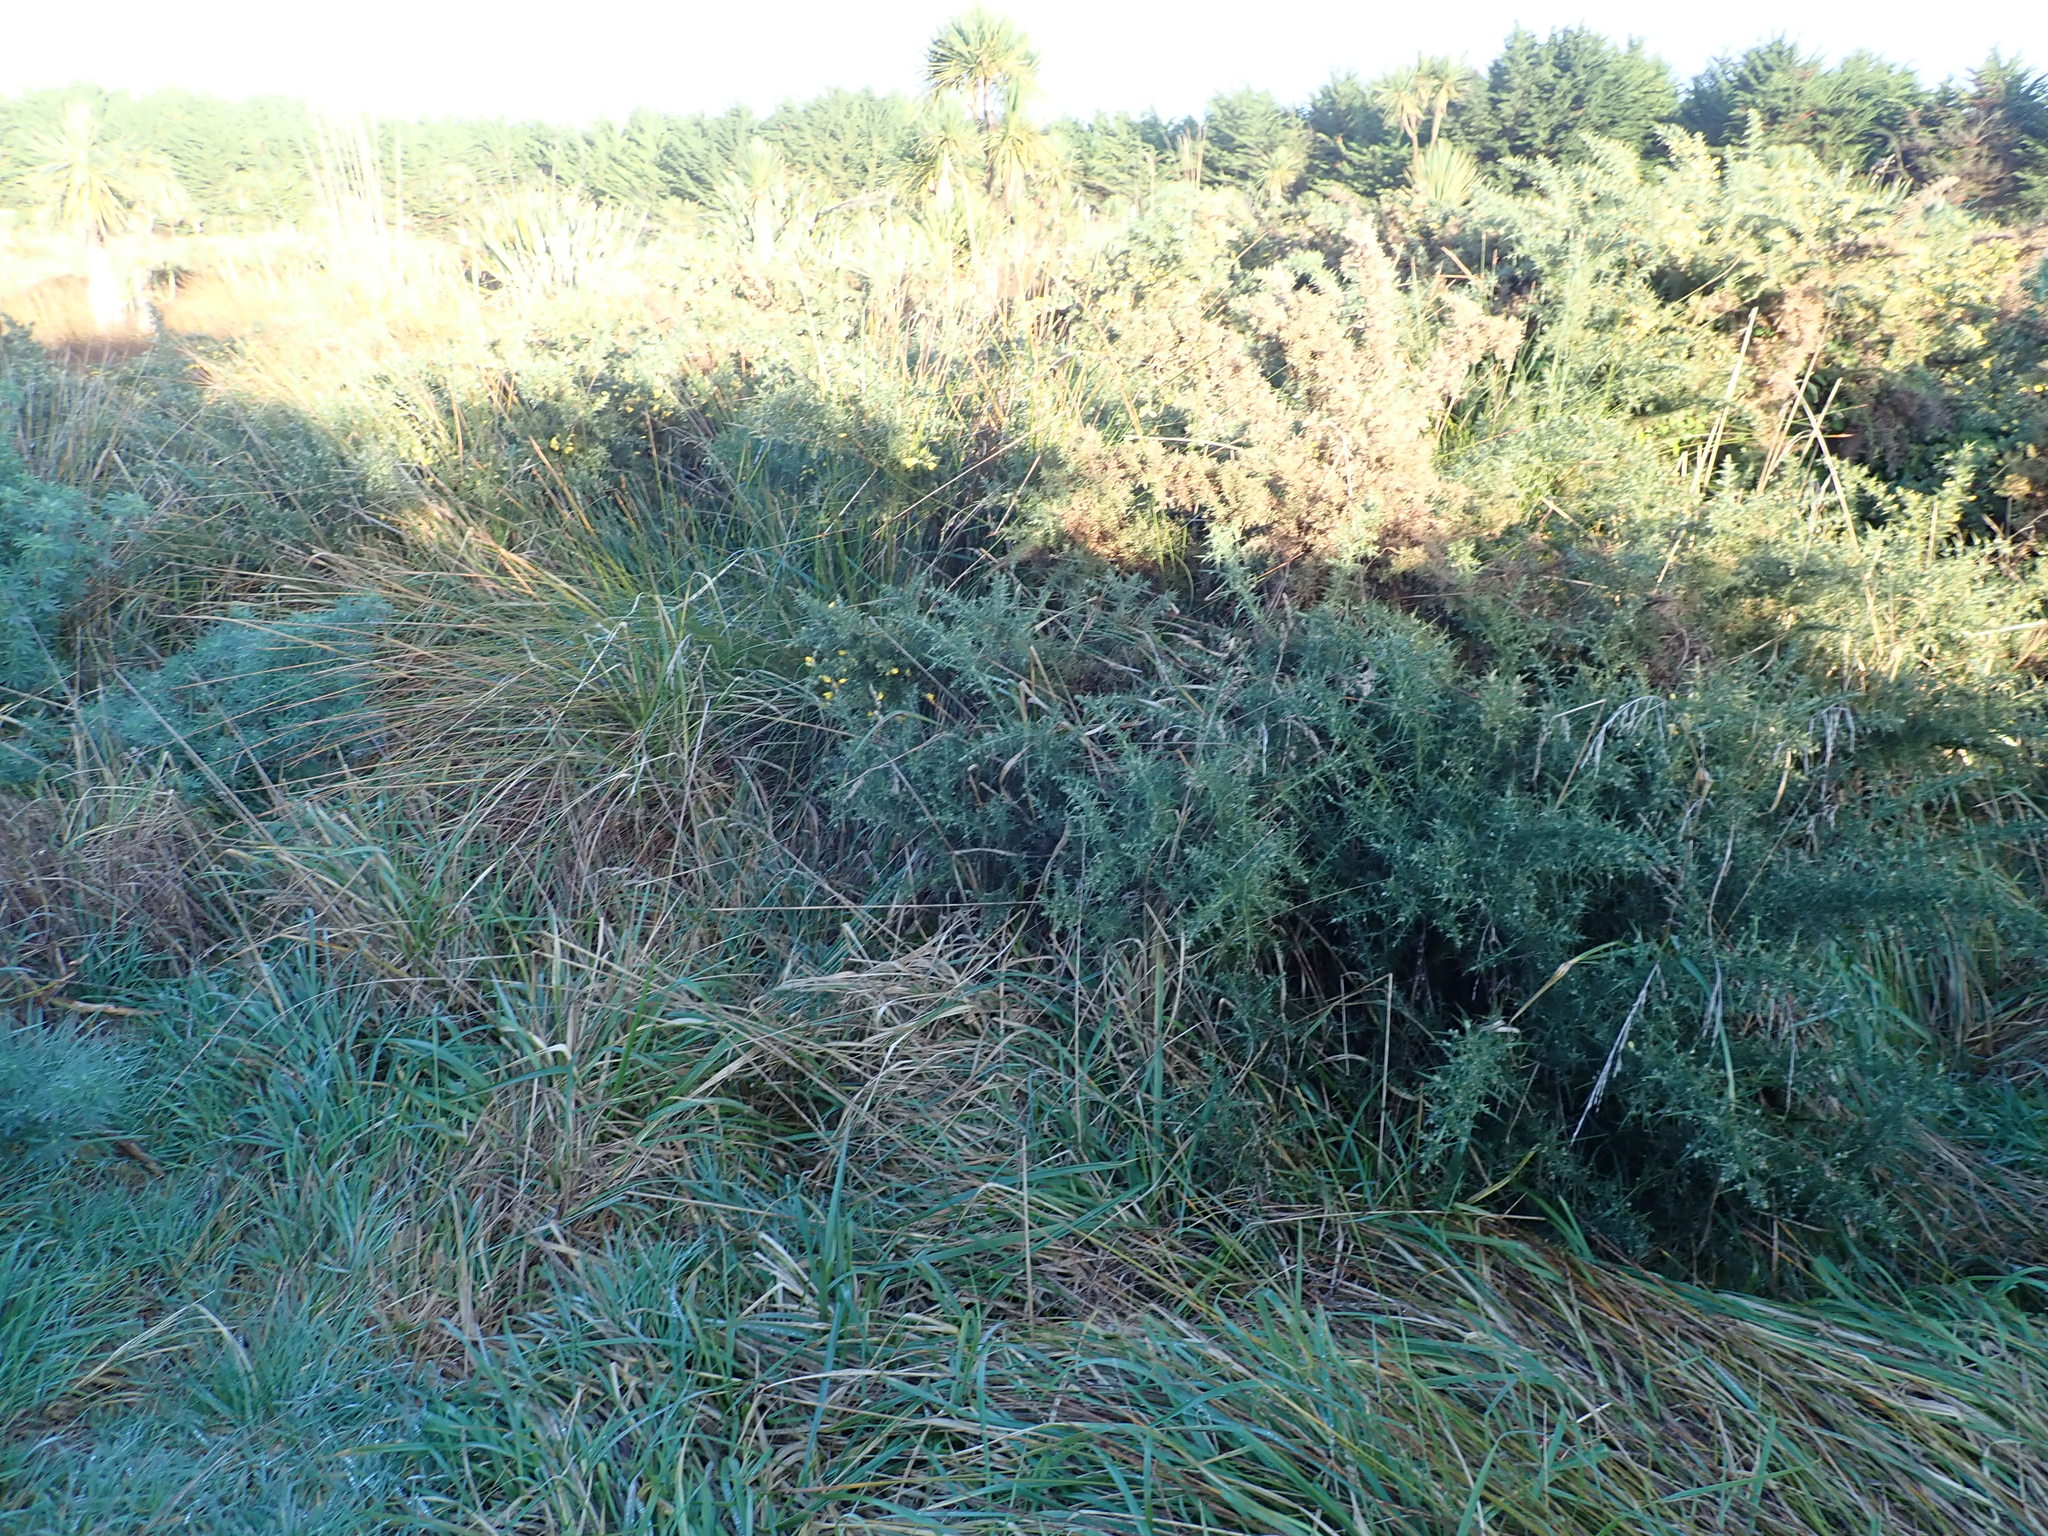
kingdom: Plantae
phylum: Tracheophyta
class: Magnoliopsida
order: Fabales
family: Fabaceae
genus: Ulex
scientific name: Ulex europaeus
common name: Common gorse
